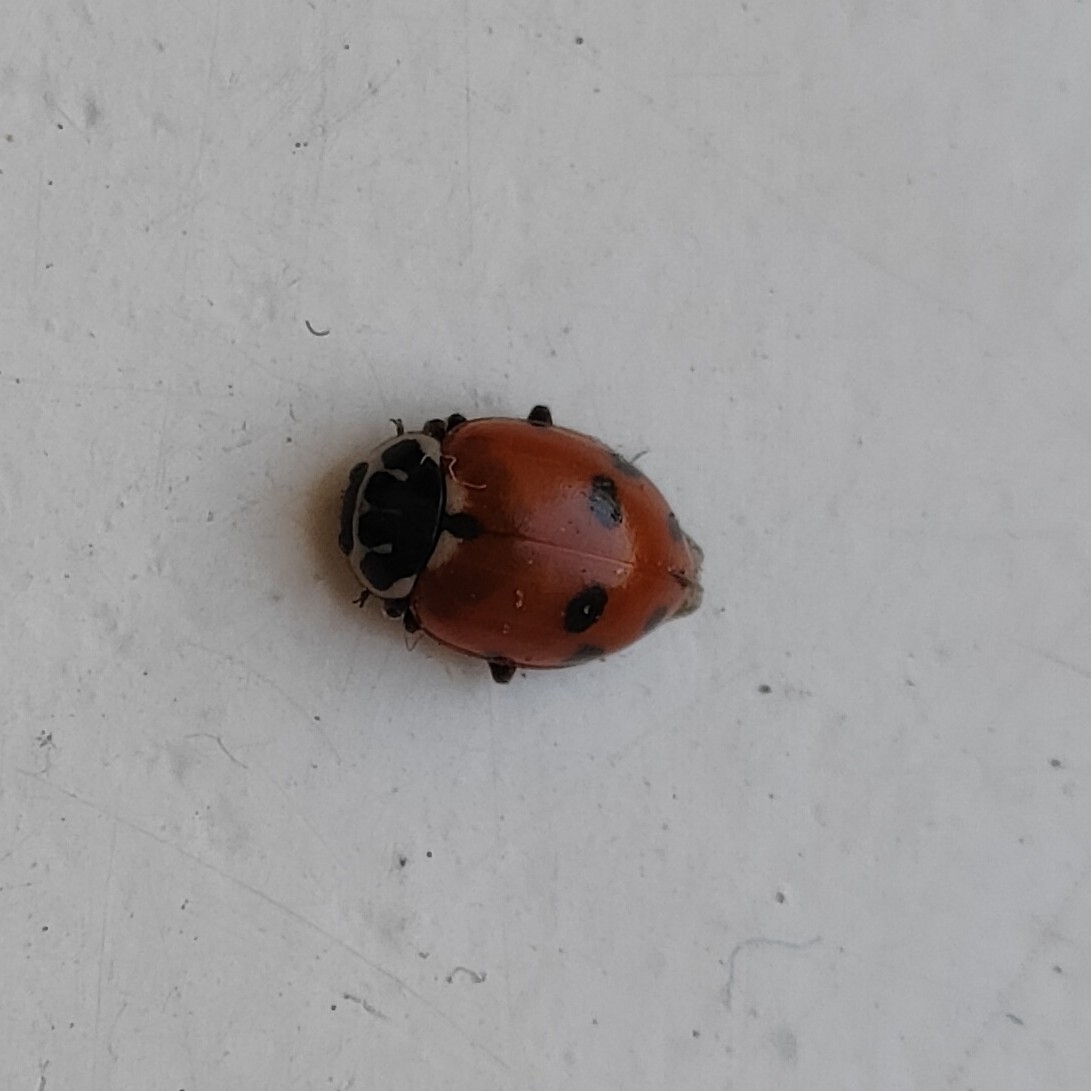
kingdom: Animalia
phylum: Arthropoda
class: Insecta
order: Coleoptera
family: Coccinellidae
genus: Hippodamia
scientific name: Hippodamia variegata
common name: Ladybird beetle
